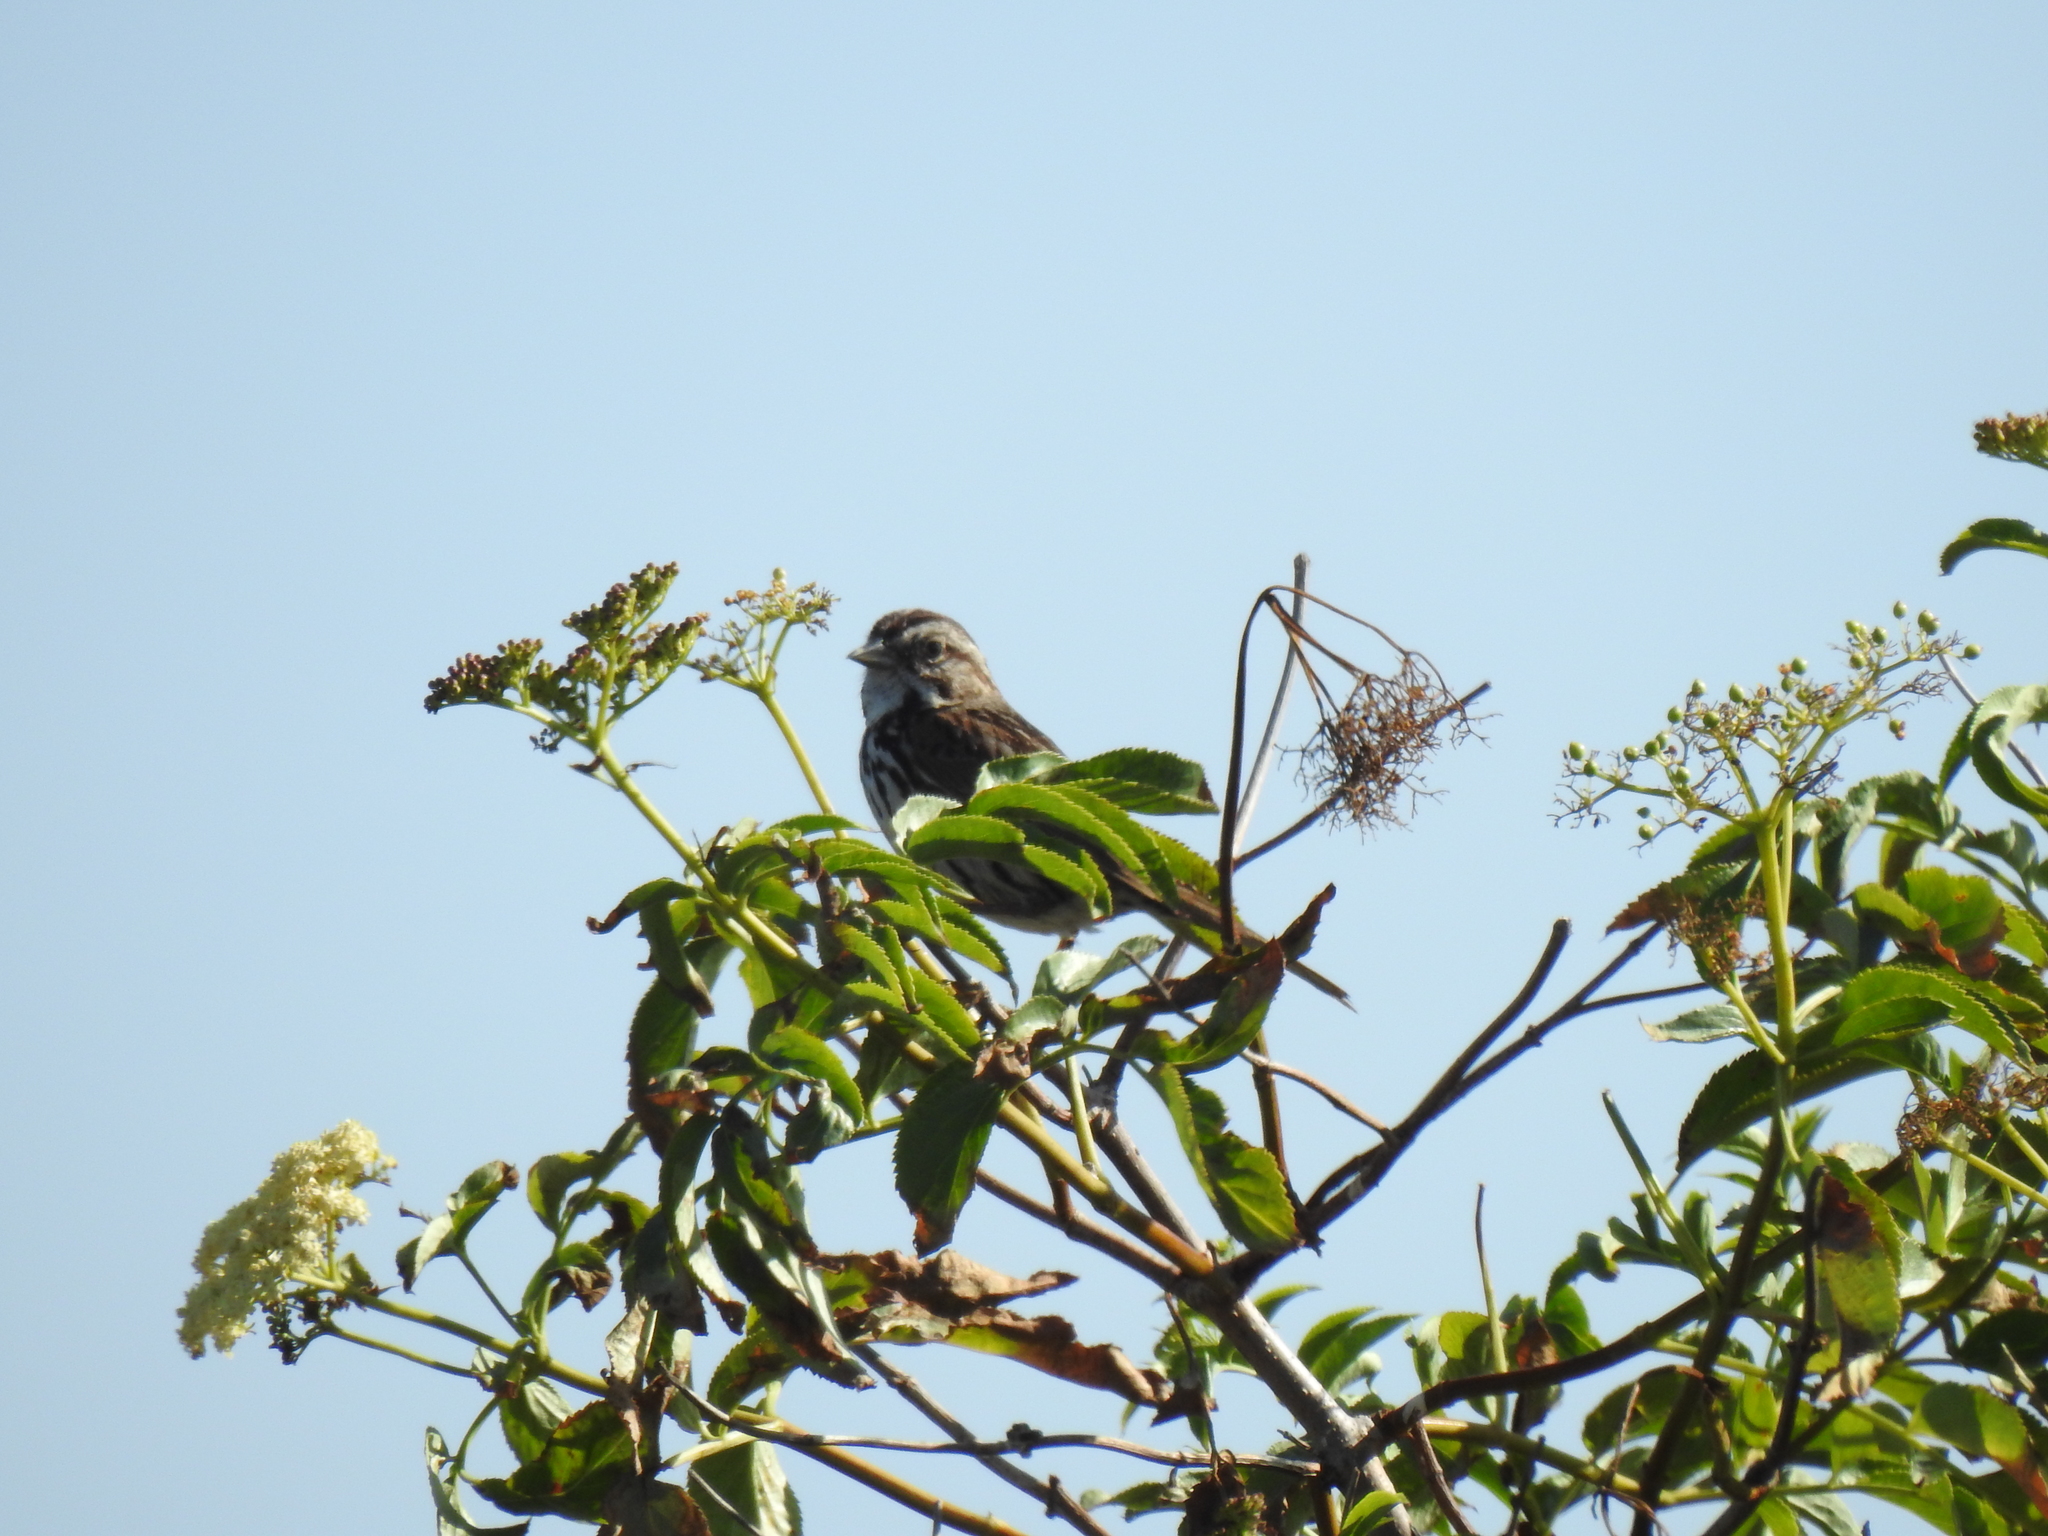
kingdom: Animalia
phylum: Chordata
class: Aves
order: Passeriformes
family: Passerellidae
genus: Melospiza
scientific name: Melospiza melodia
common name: Song sparrow
